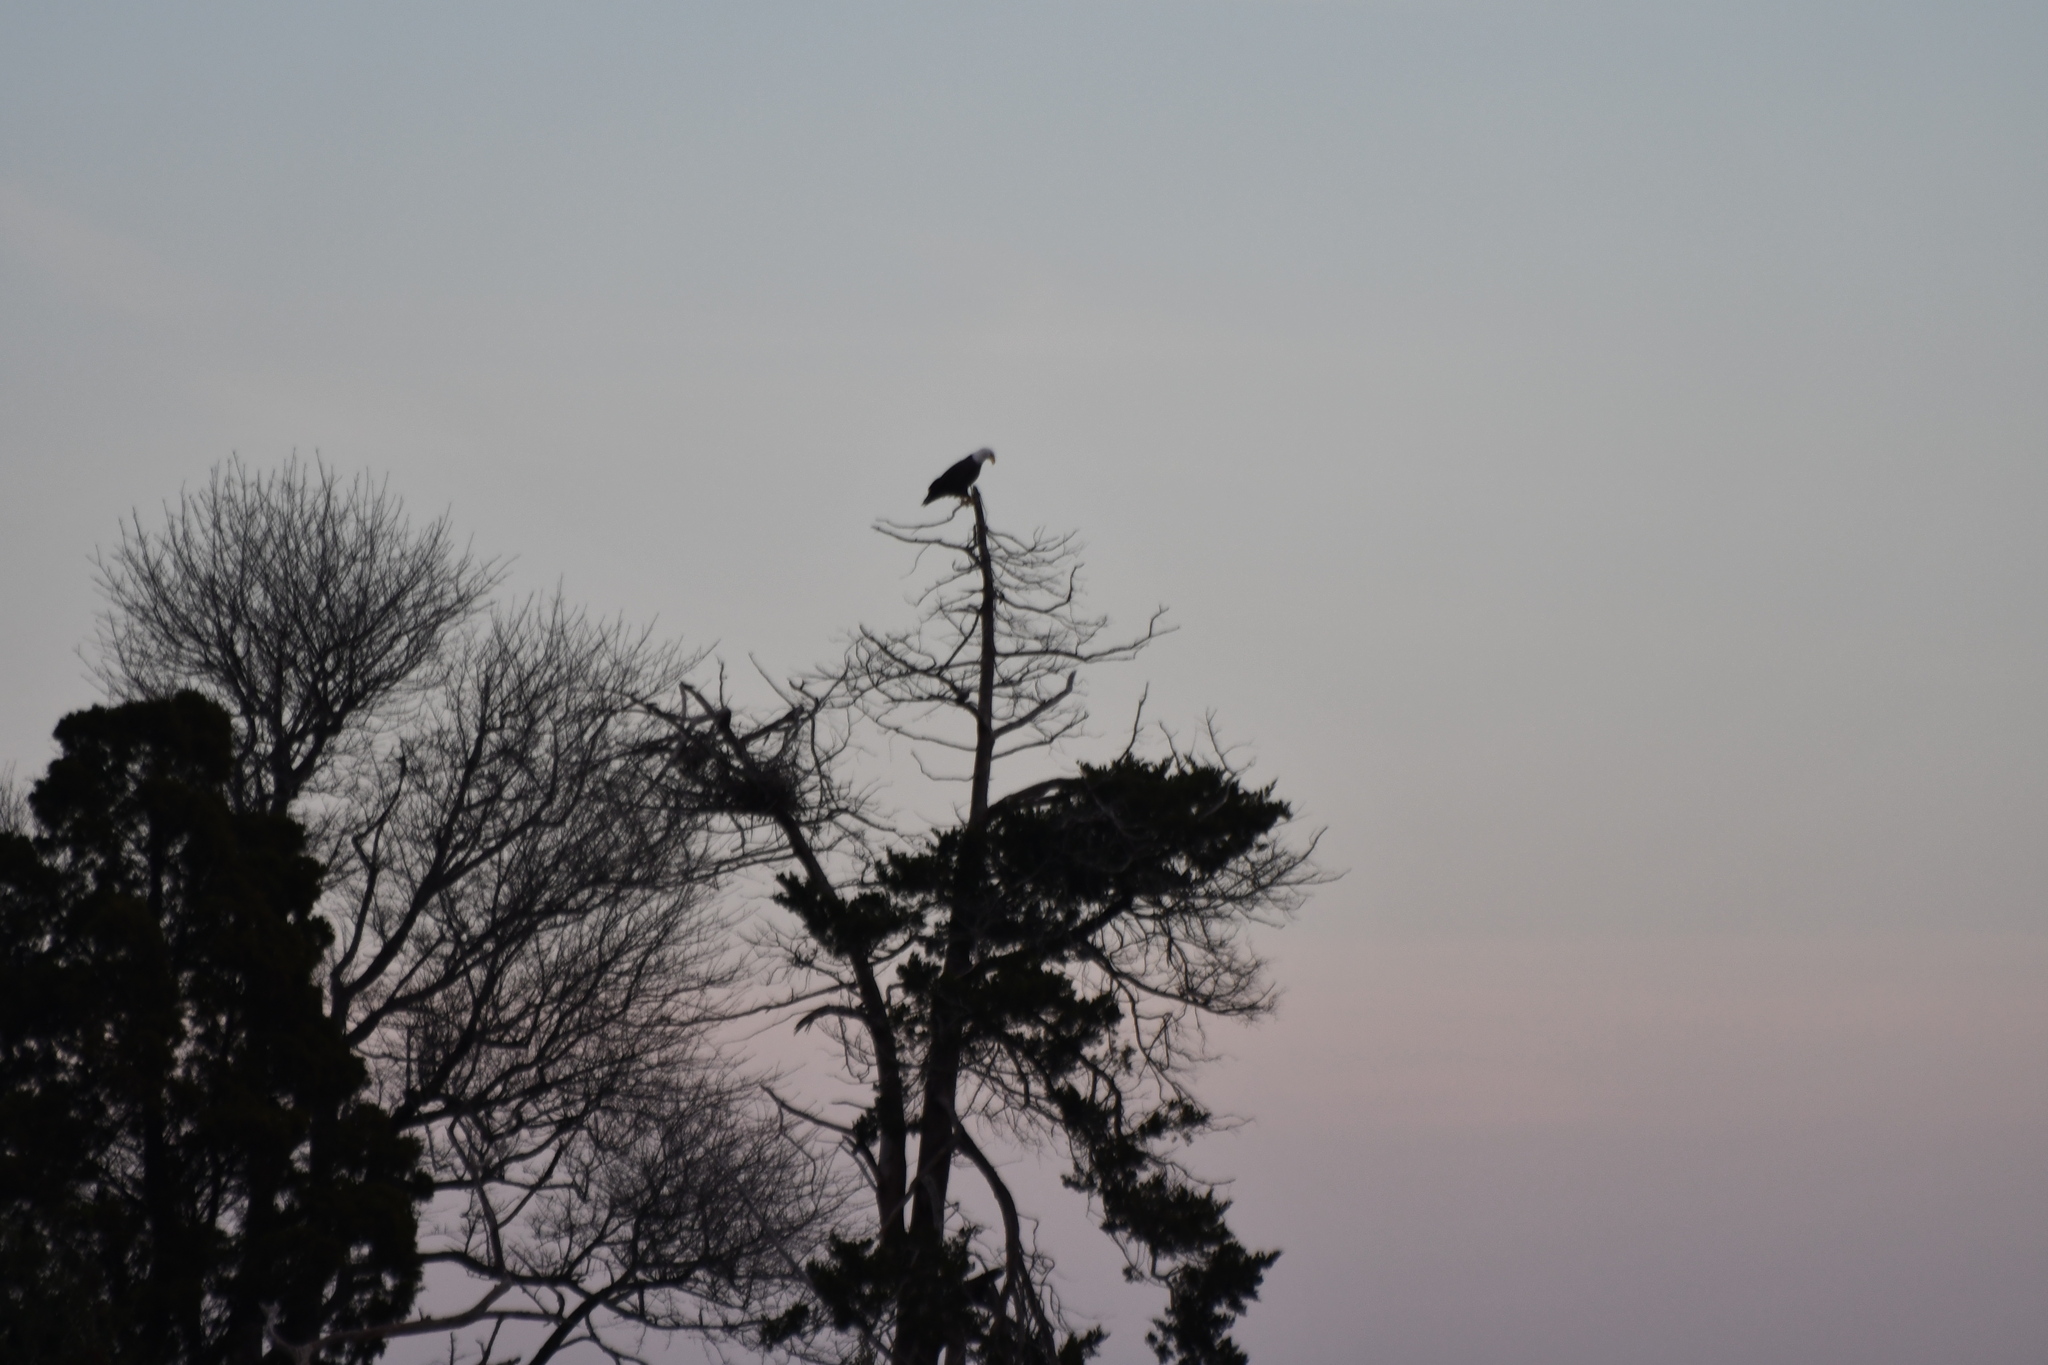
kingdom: Animalia
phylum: Chordata
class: Aves
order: Accipitriformes
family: Accipitridae
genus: Haliaeetus
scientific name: Haliaeetus leucocephalus
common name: Bald eagle
